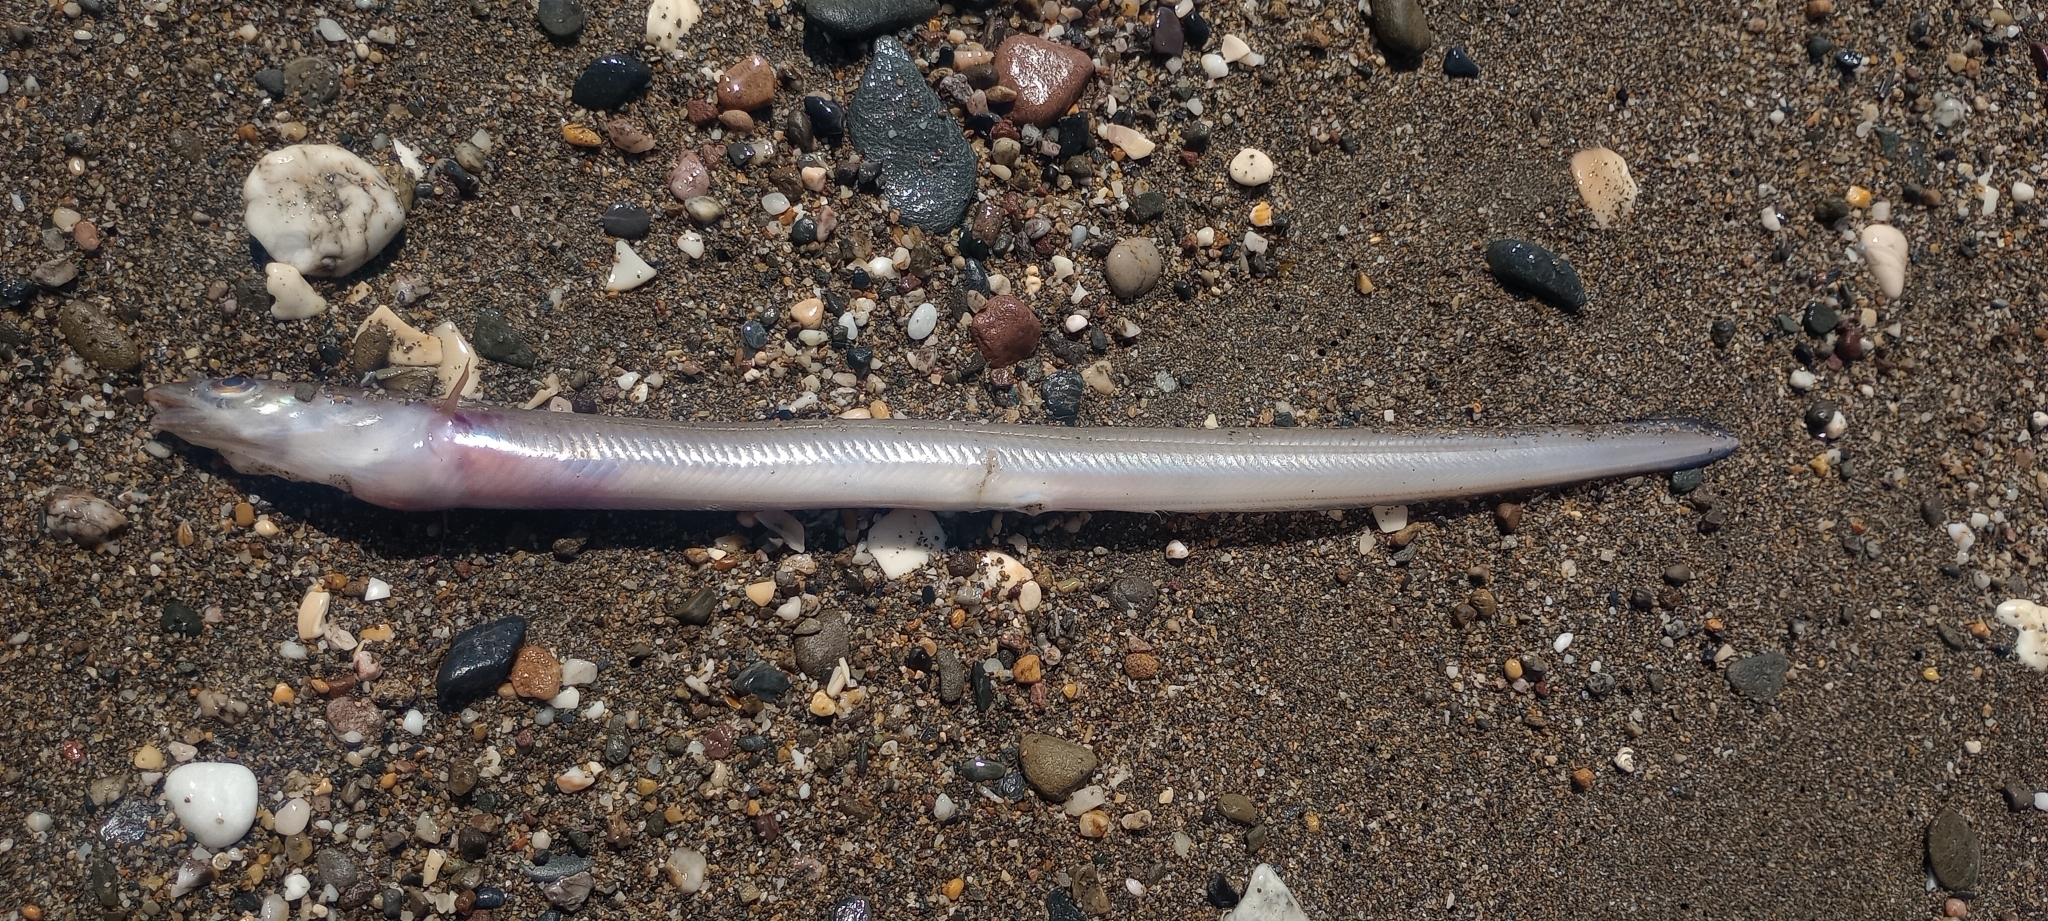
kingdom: Animalia
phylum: Chordata
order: Anguilliformes
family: Congridae
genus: Gnathophis
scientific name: Gnathophis mystax
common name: Blacktailed conger
